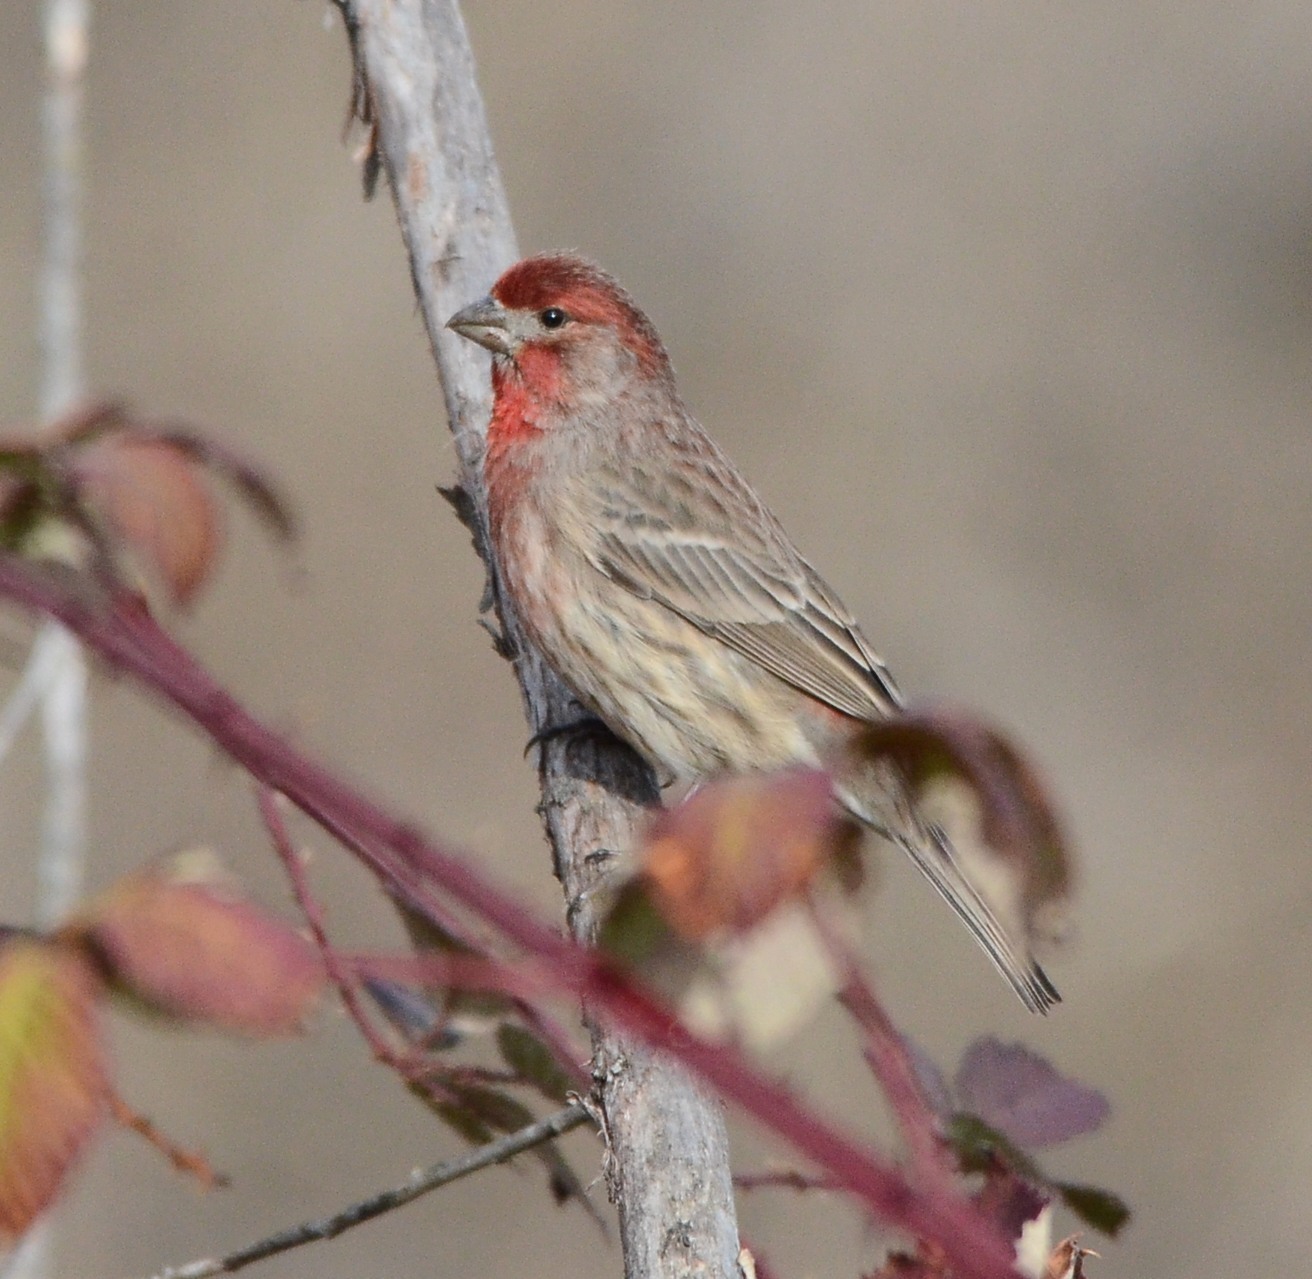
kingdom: Animalia
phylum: Chordata
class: Aves
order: Passeriformes
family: Fringillidae
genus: Haemorhous
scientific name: Haemorhous mexicanus
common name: House finch
